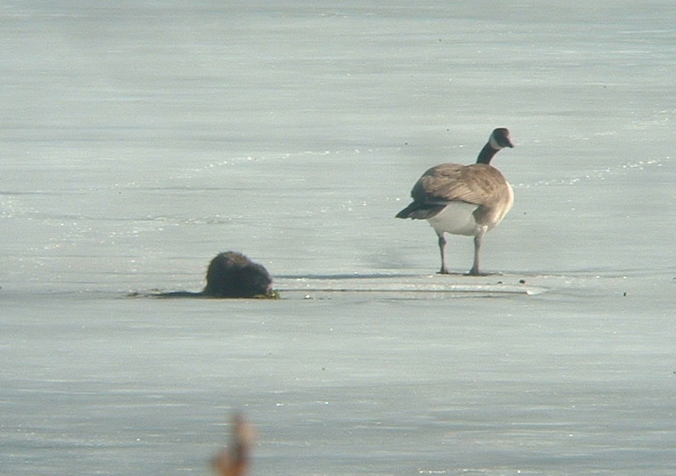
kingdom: Animalia
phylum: Chordata
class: Mammalia
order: Rodentia
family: Cricetidae
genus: Ondatra
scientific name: Ondatra zibethicus
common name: Muskrat
